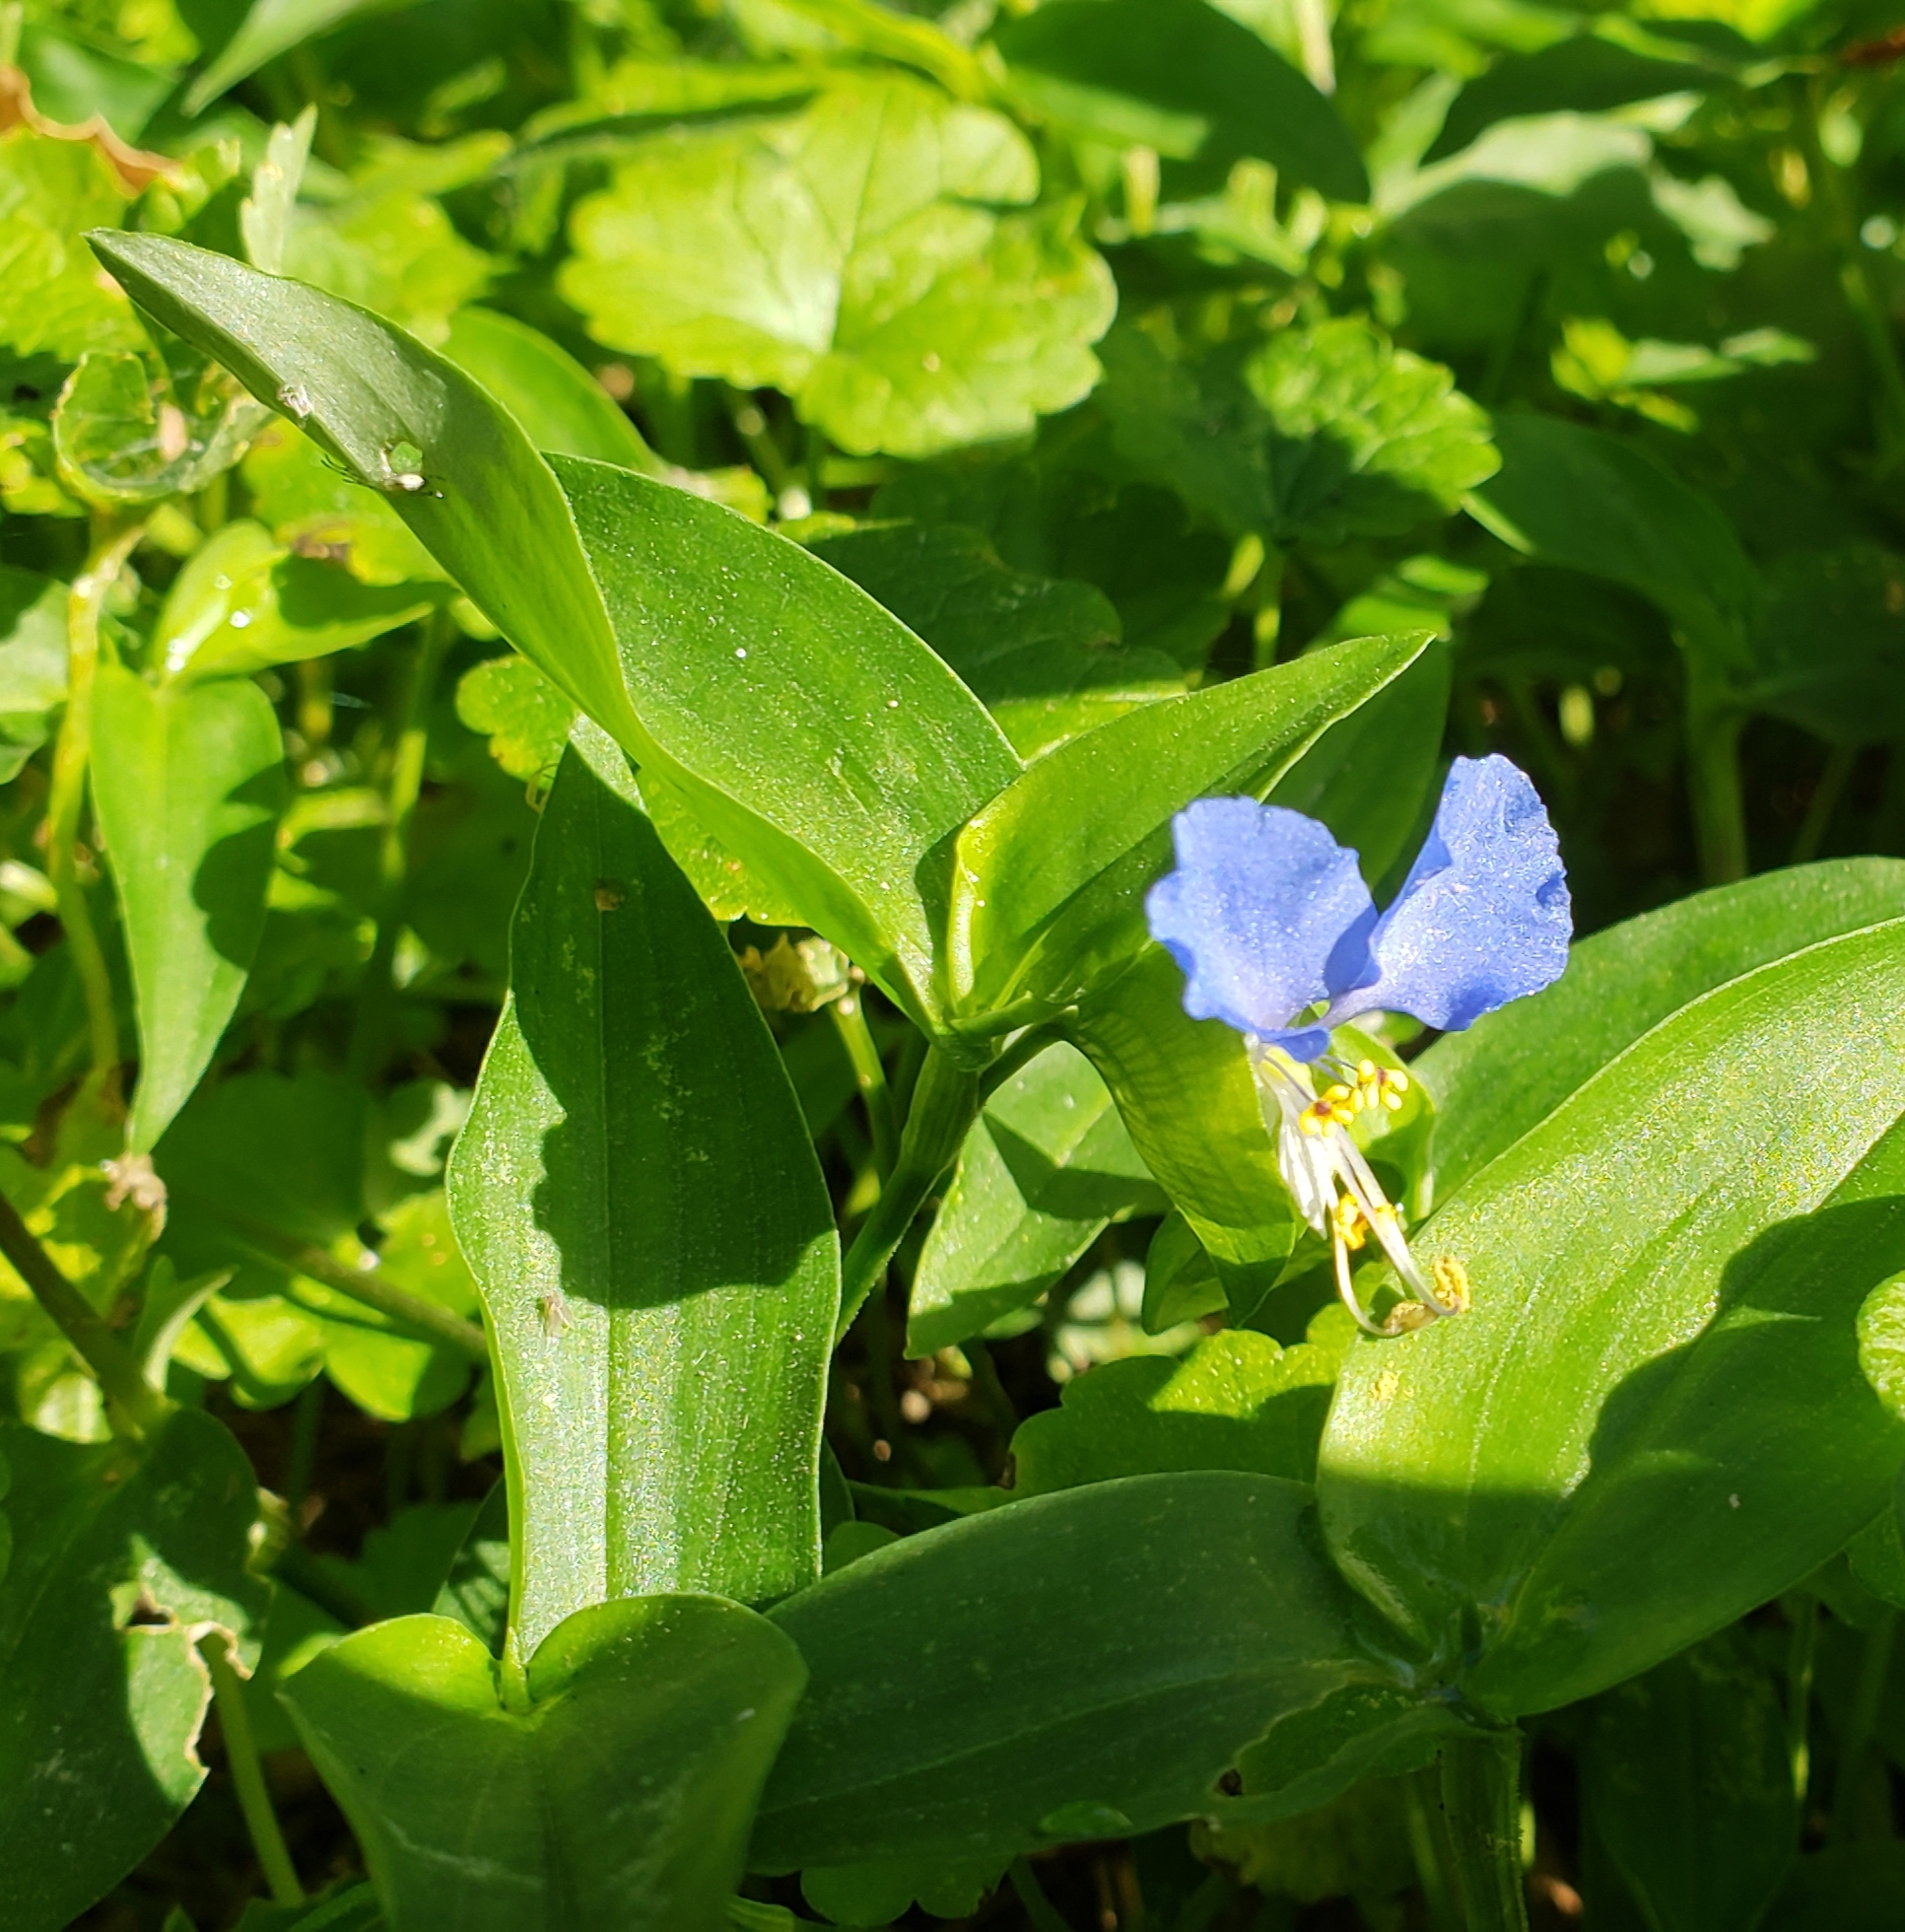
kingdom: Plantae
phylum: Tracheophyta
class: Liliopsida
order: Commelinales
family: Commelinaceae
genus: Commelina
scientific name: Commelina communis
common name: Asiatic dayflower
